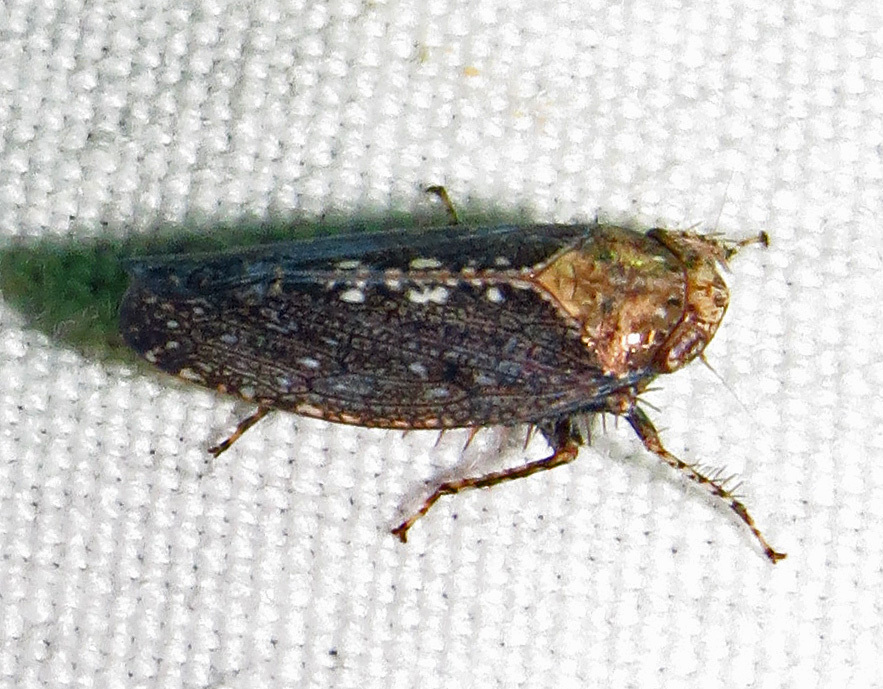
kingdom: Animalia
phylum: Arthropoda
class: Insecta
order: Hemiptera
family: Cicadellidae
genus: Excultanus
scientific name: Excultanus excultus
